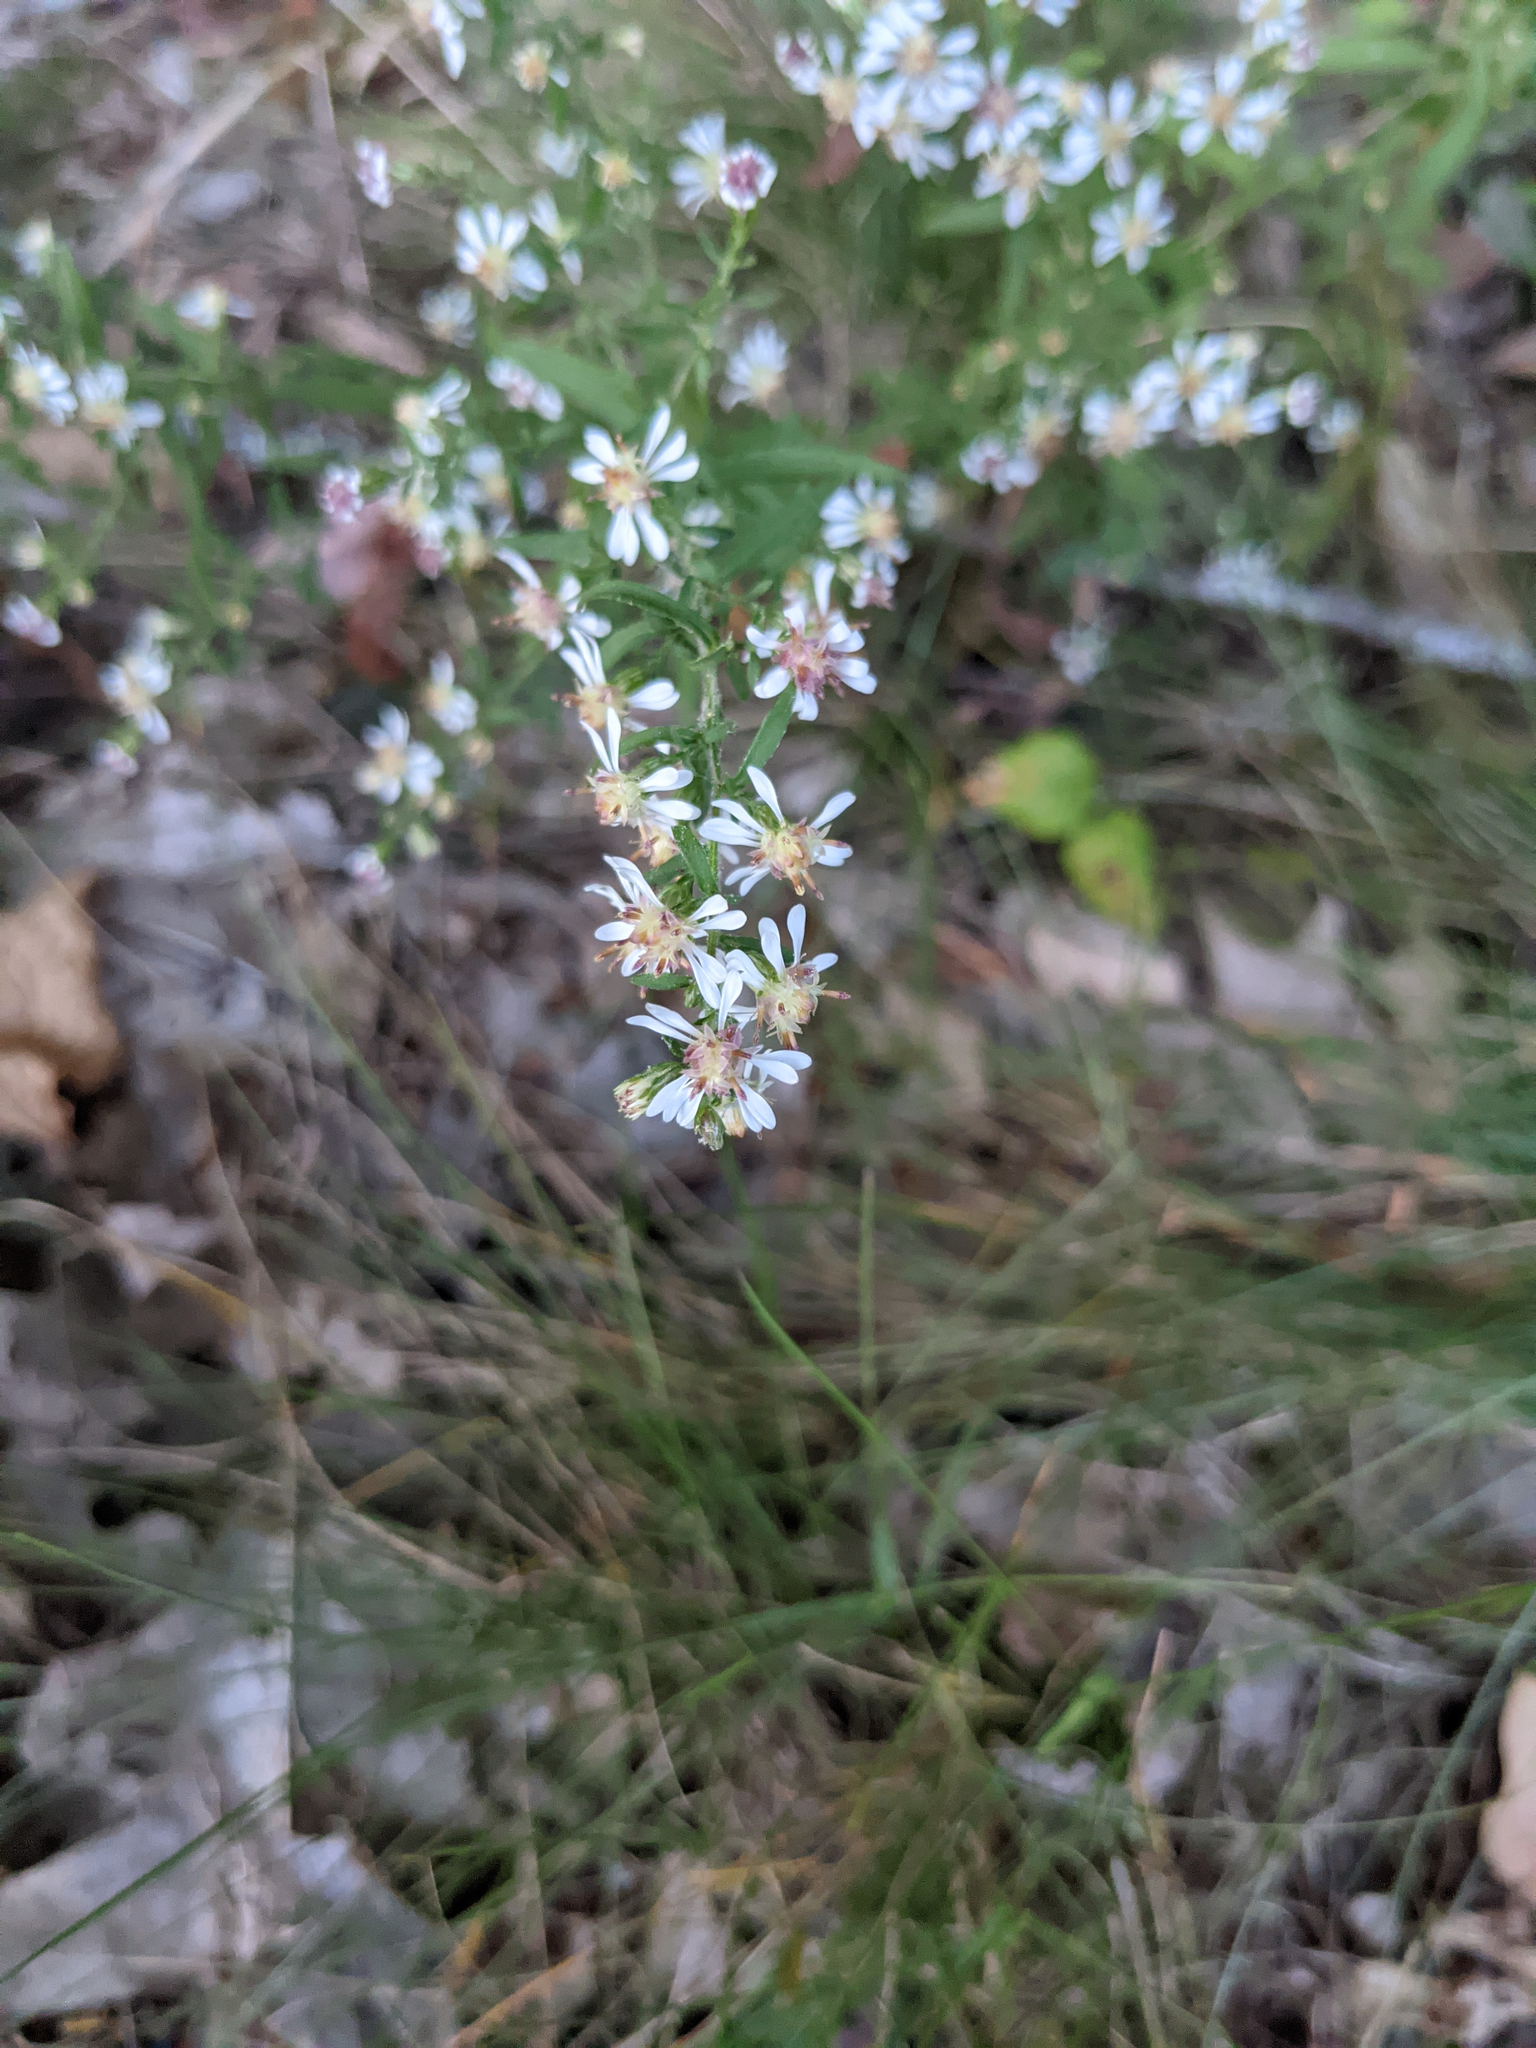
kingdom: Plantae
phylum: Tracheophyta
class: Magnoliopsida
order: Asterales
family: Asteraceae
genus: Symphyotrichum
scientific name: Symphyotrichum lateriflorum
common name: Calico aster
